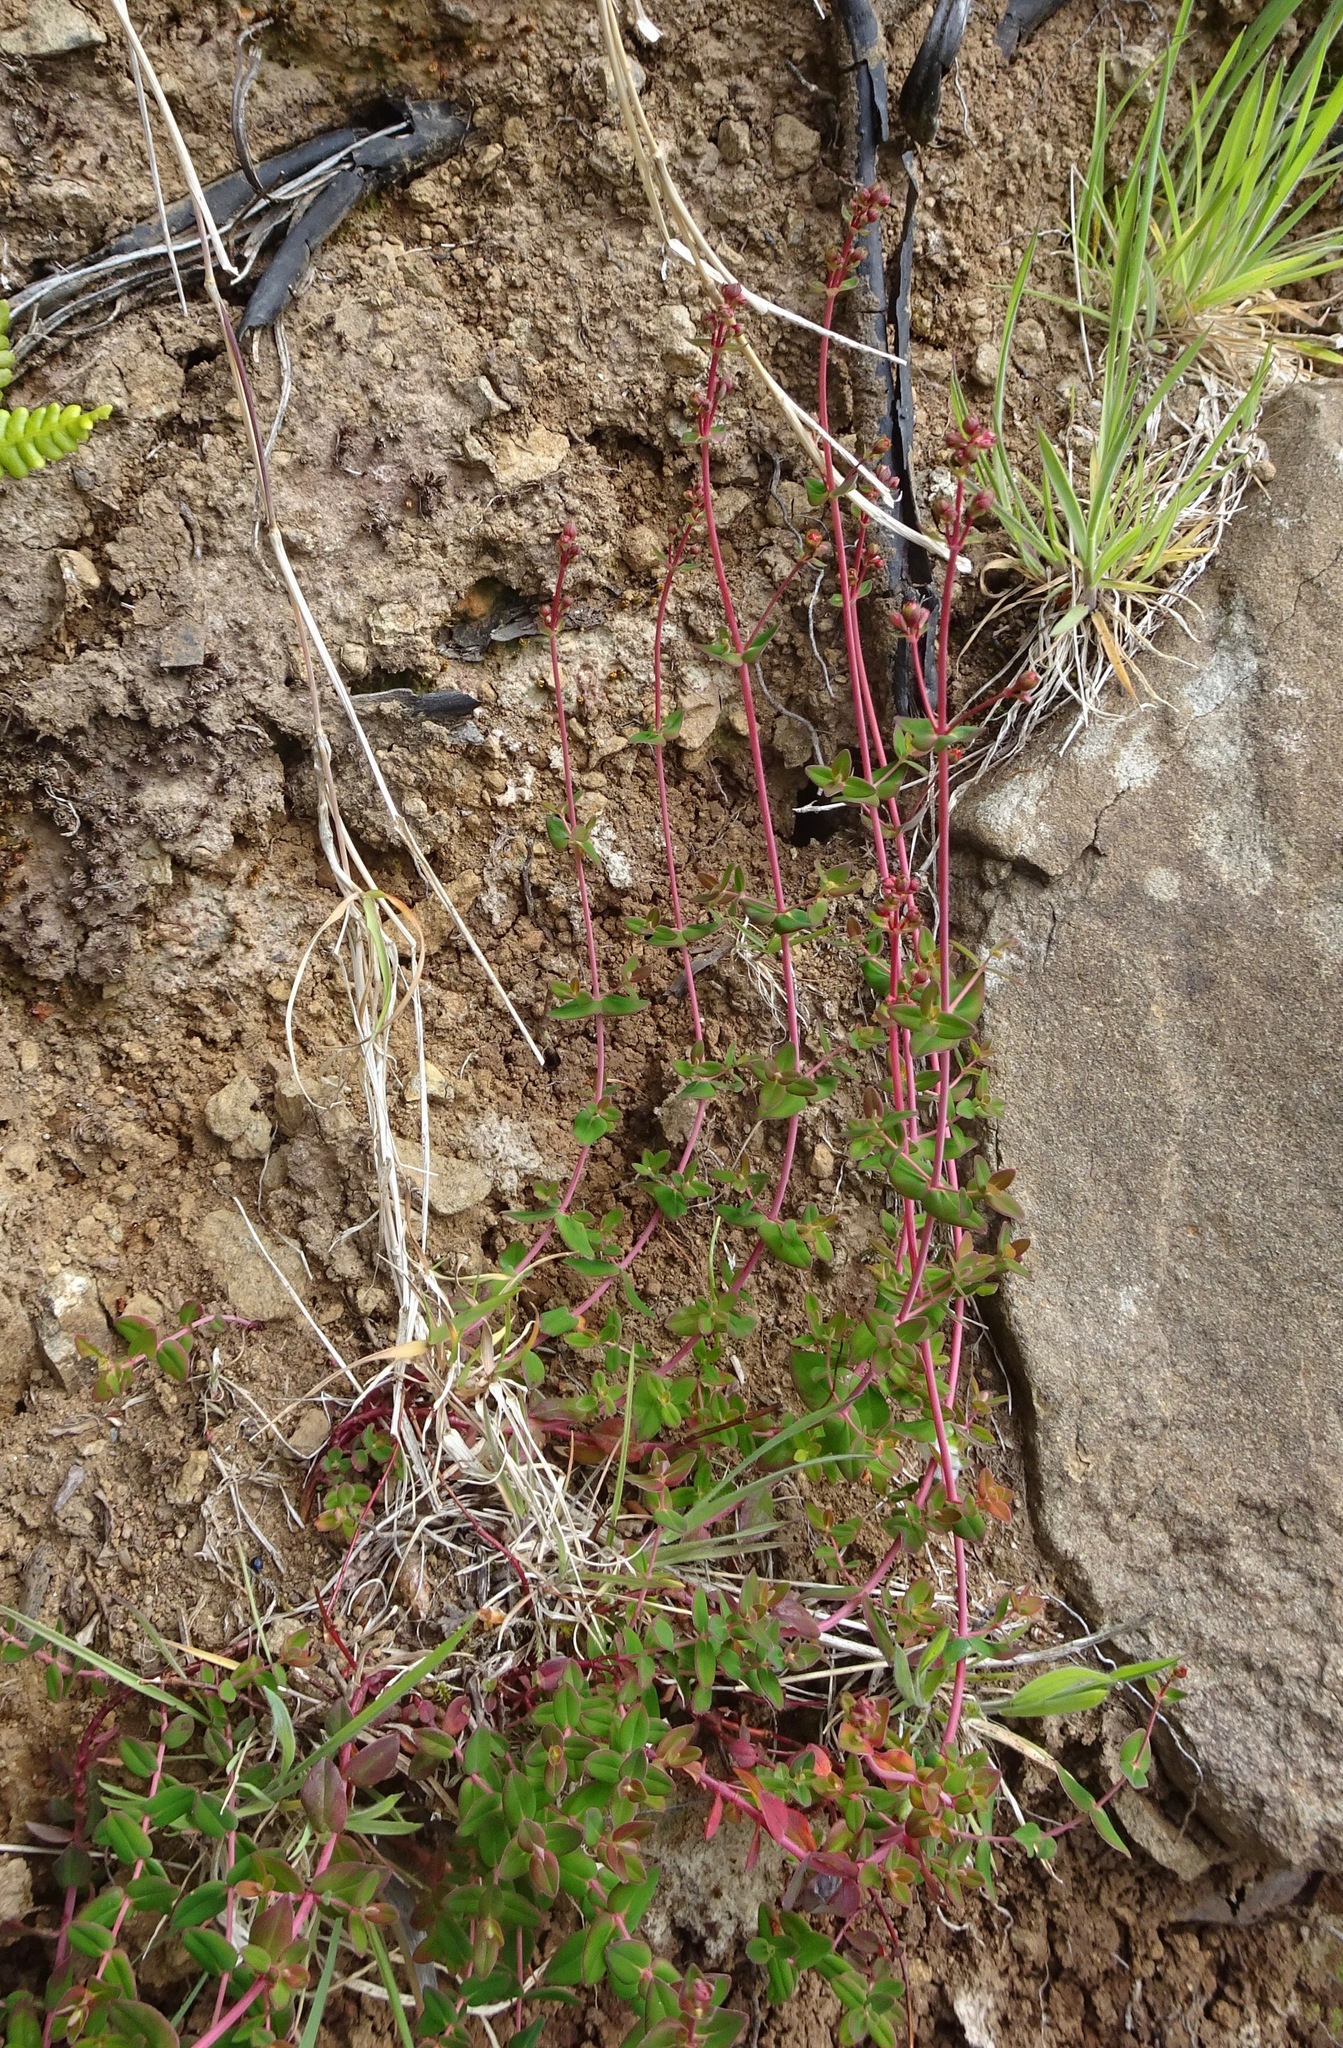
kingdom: Plantae
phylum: Tracheophyta
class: Magnoliopsida
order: Malpighiales
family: Hypericaceae
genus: Hypericum
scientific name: Hypericum pulchrum
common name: Slender st. john's-wort
